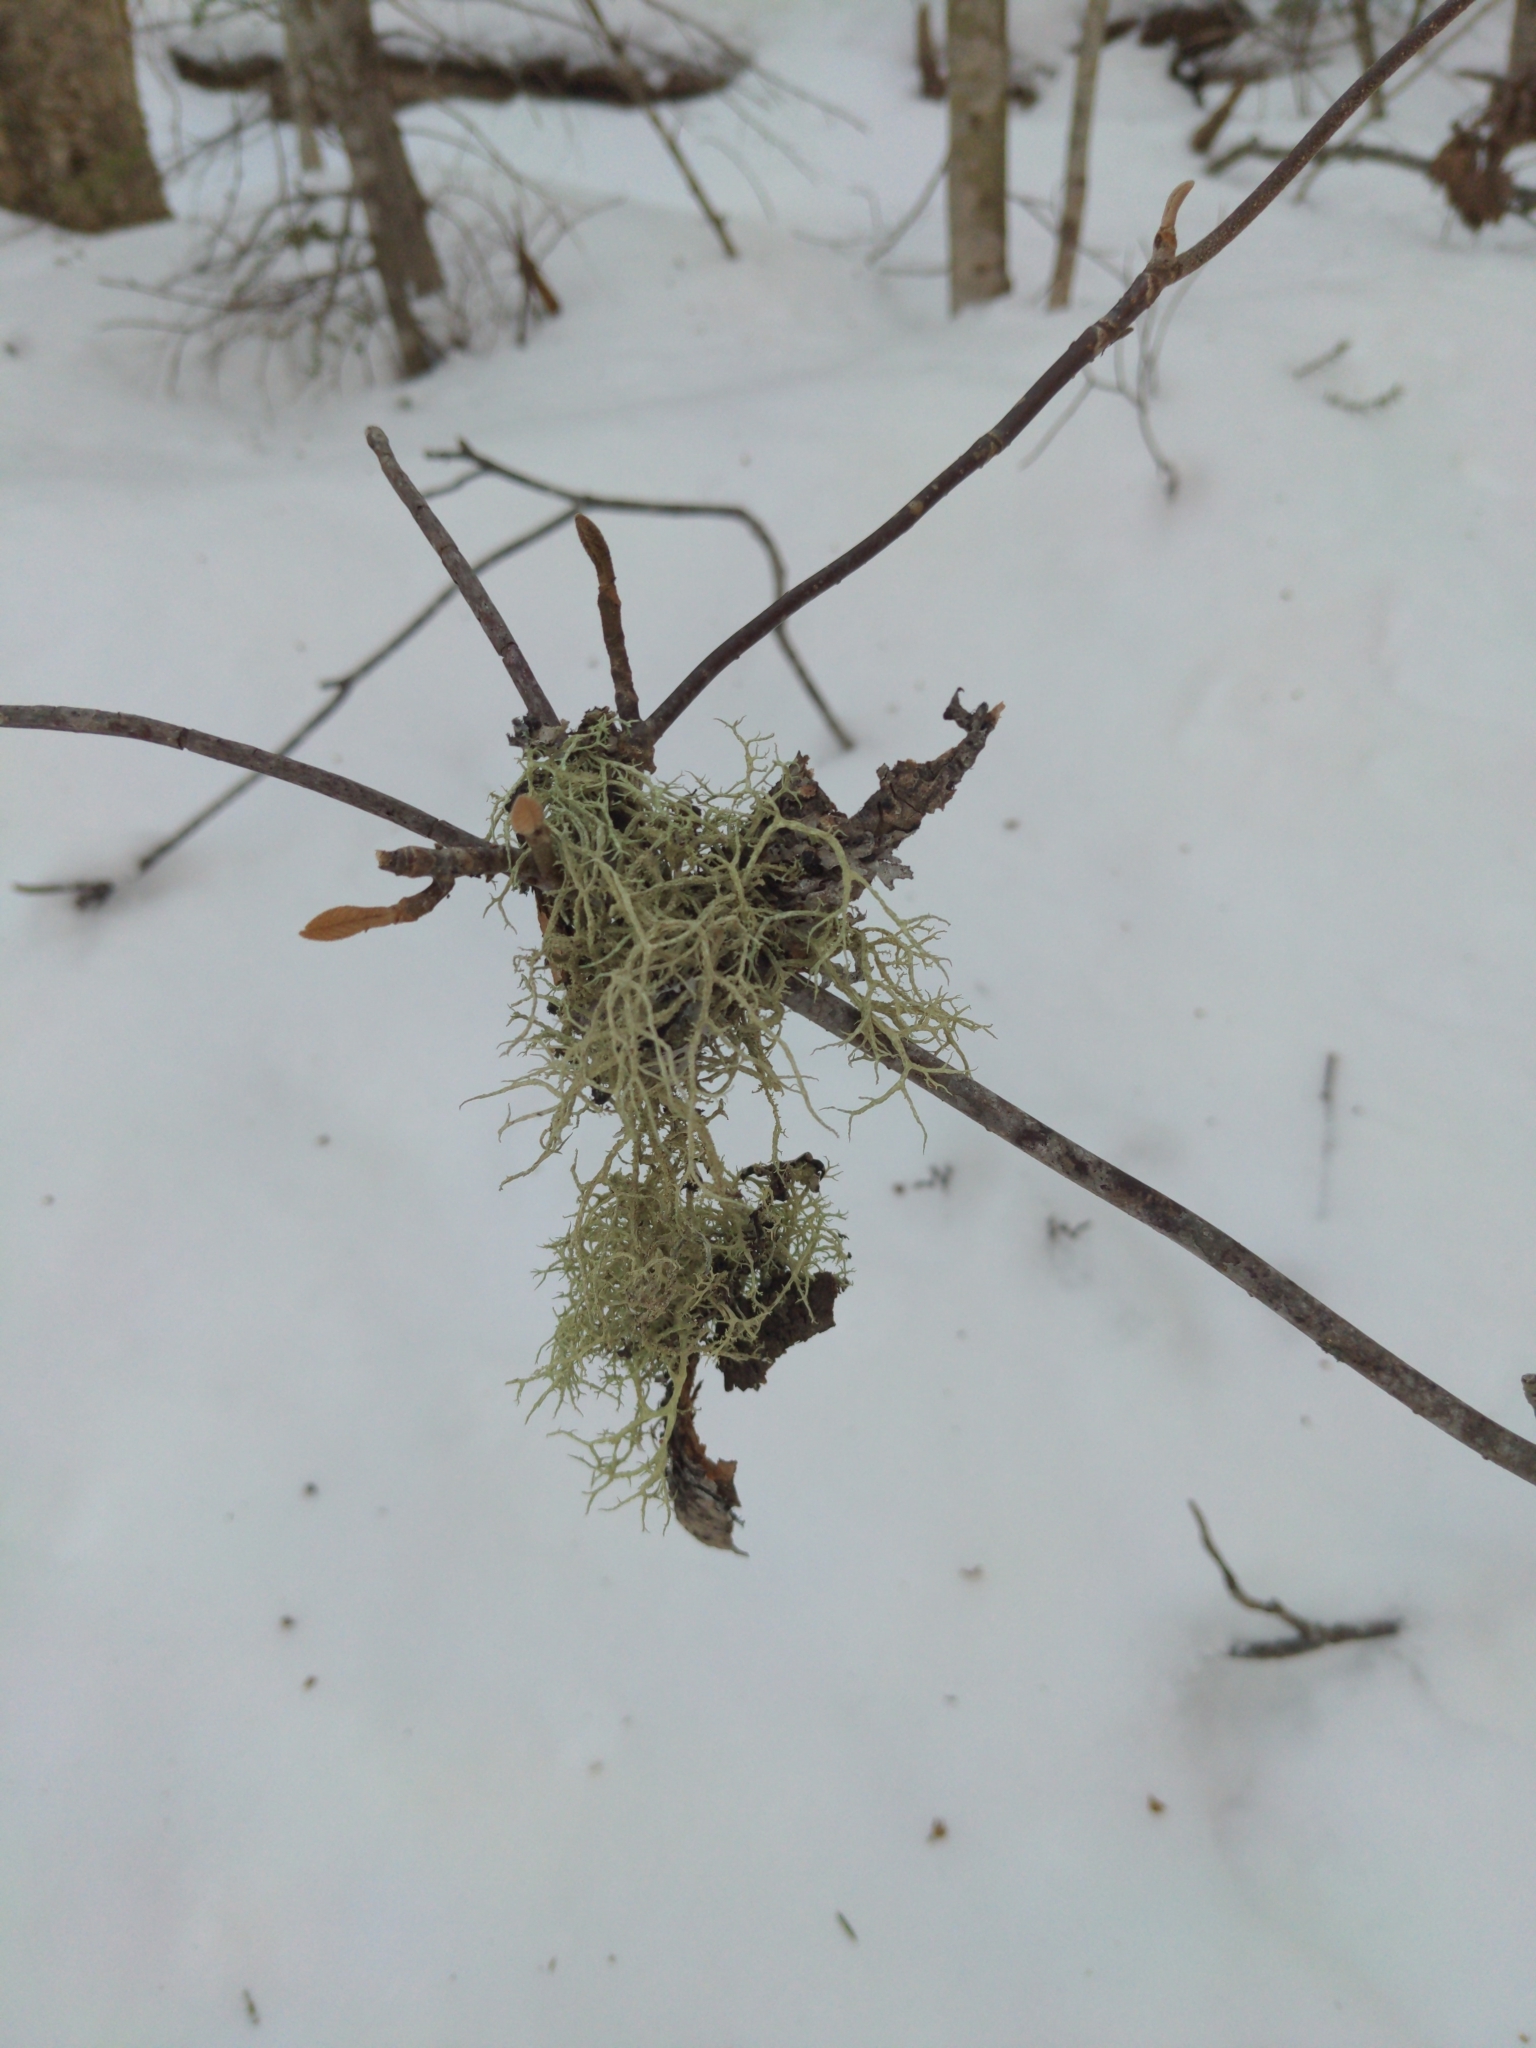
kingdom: Fungi
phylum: Ascomycota
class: Lecanoromycetes
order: Lecanorales
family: Parmeliaceae
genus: Evernia
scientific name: Evernia mesomorpha
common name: Boreal oak moss lichen
